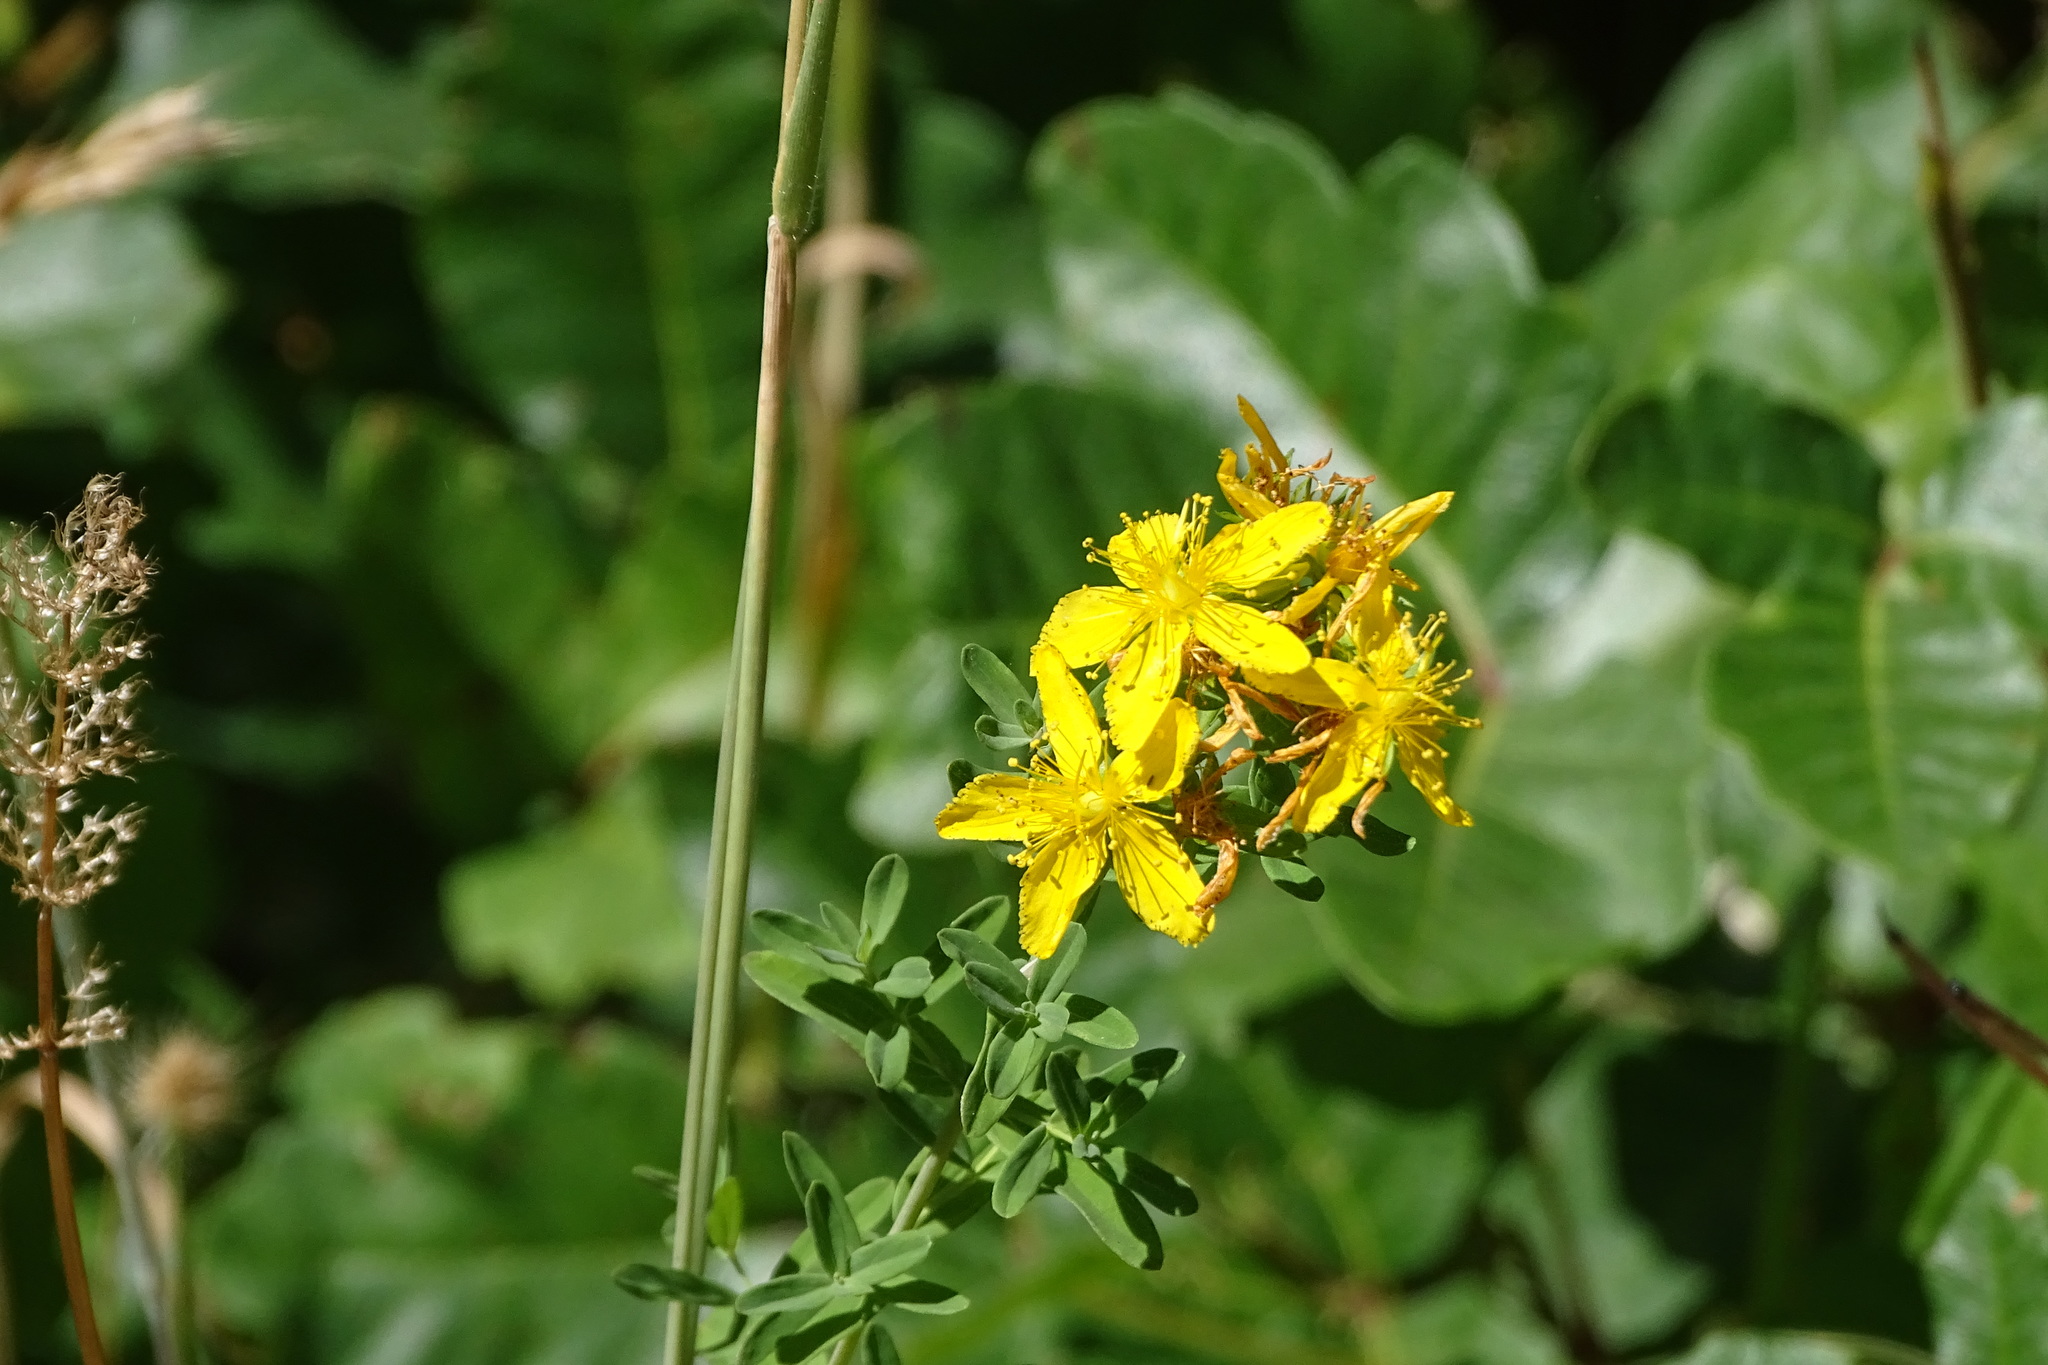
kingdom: Plantae
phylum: Tracheophyta
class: Magnoliopsida
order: Malpighiales
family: Hypericaceae
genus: Hypericum
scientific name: Hypericum perforatum
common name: Common st. johnswort
